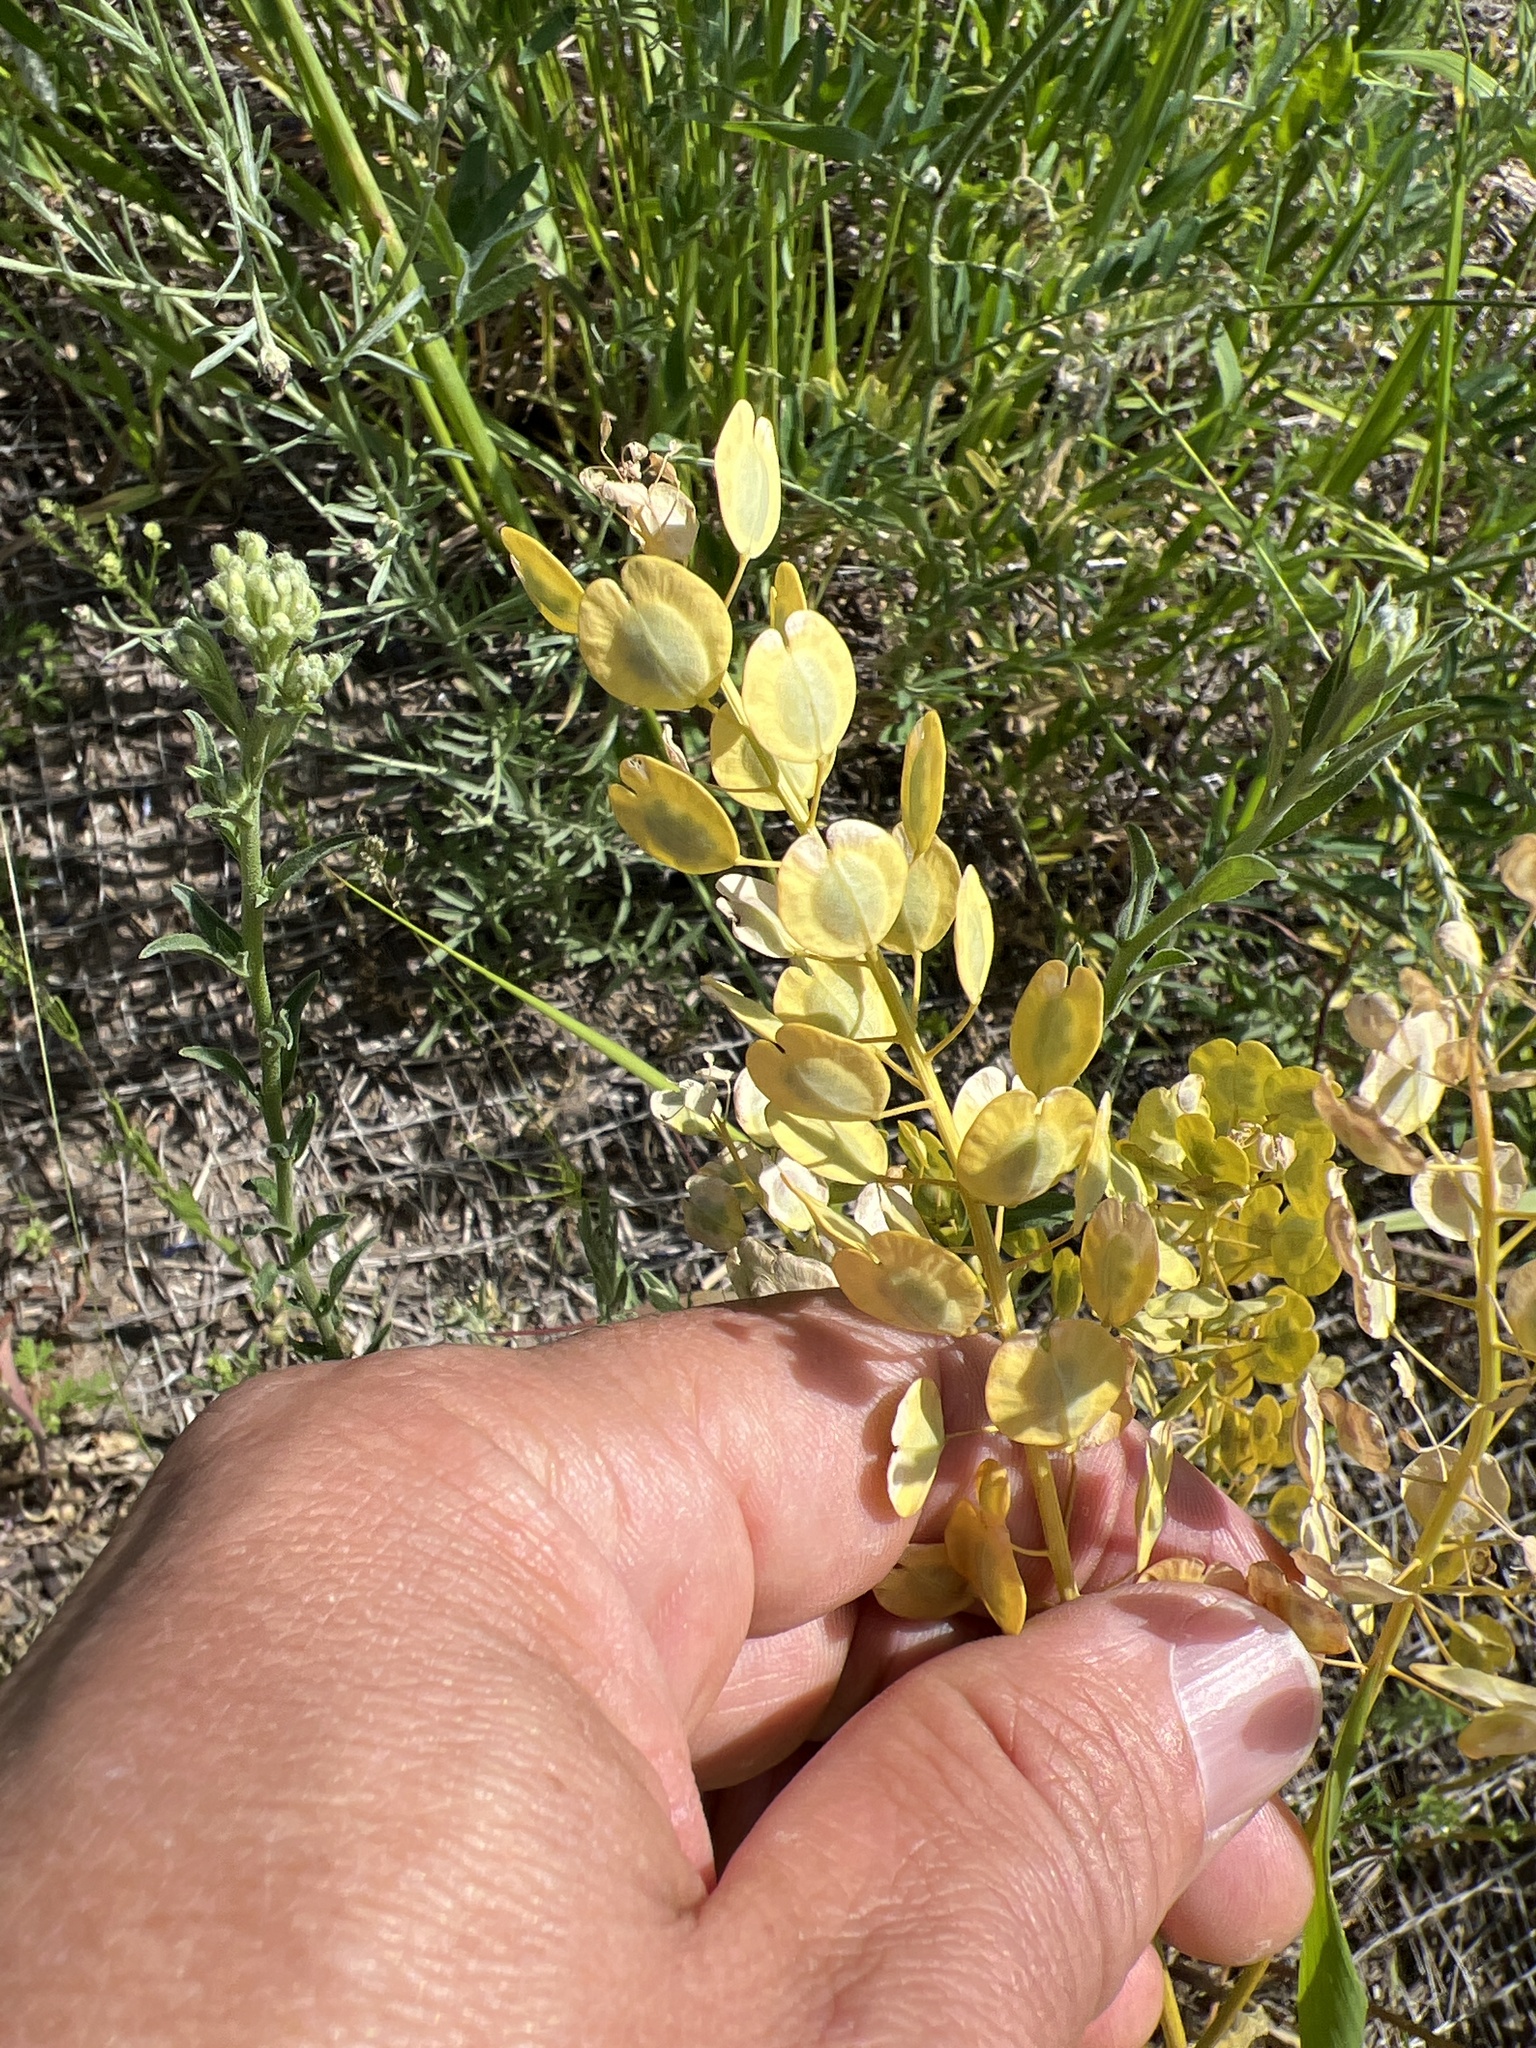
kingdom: Plantae
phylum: Tracheophyta
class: Magnoliopsida
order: Brassicales
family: Brassicaceae
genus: Thlaspi
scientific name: Thlaspi arvense
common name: Field pennycress
